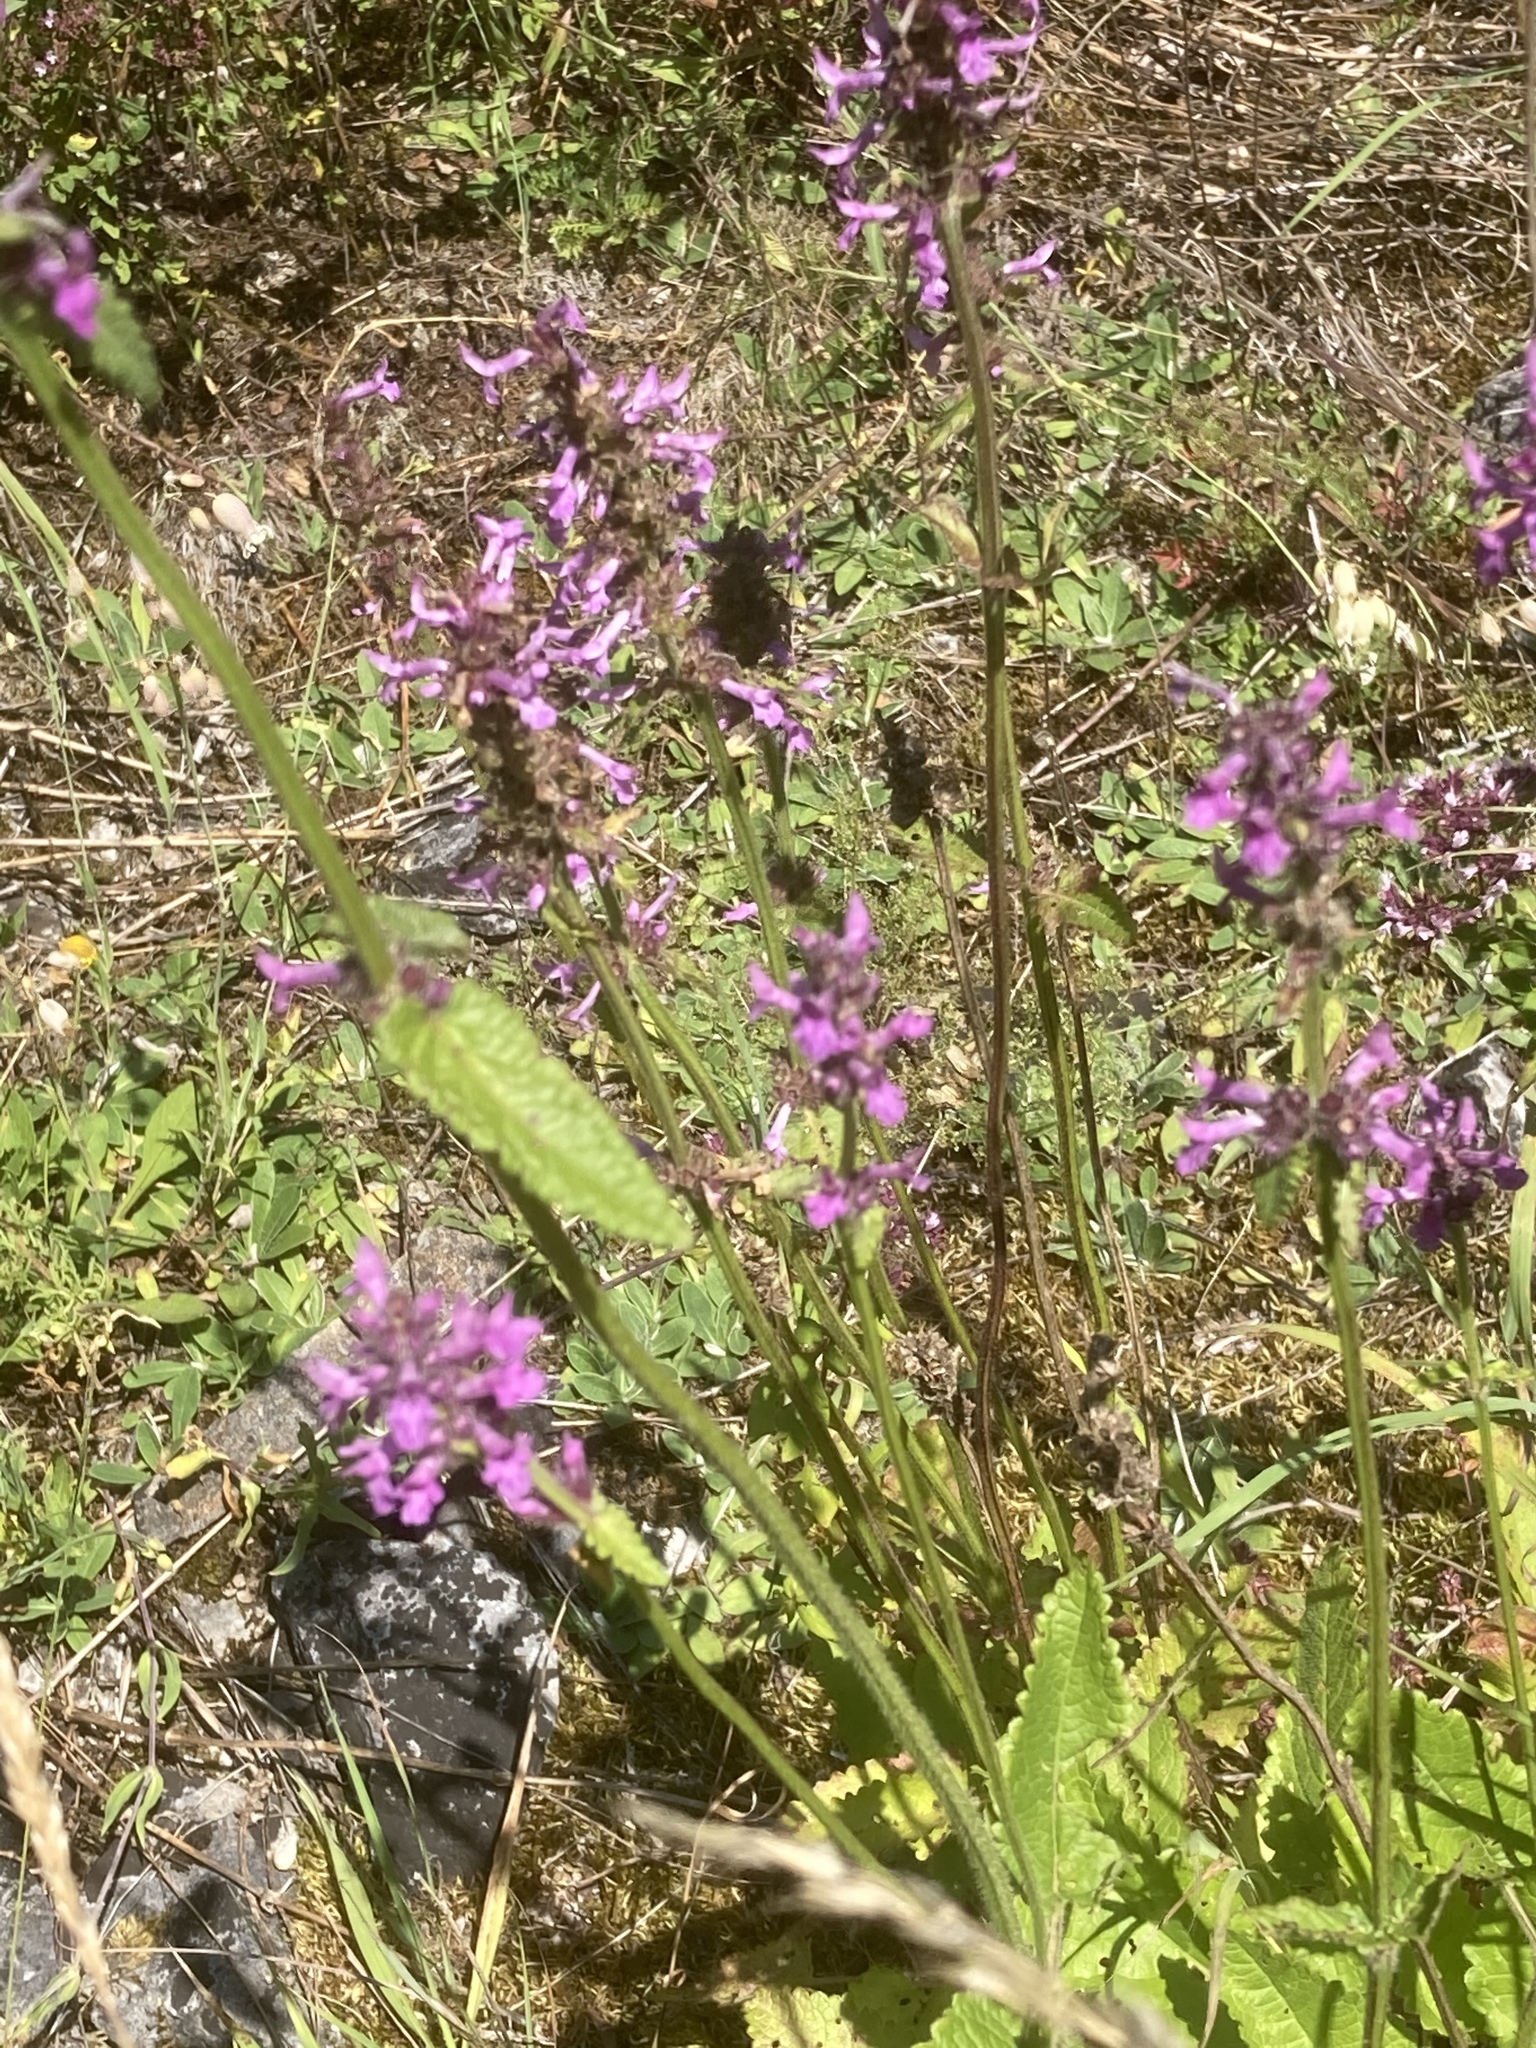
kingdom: Plantae
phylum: Tracheophyta
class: Magnoliopsida
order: Lamiales
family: Lamiaceae
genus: Betonica
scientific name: Betonica officinalis
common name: Bishop's-wort
